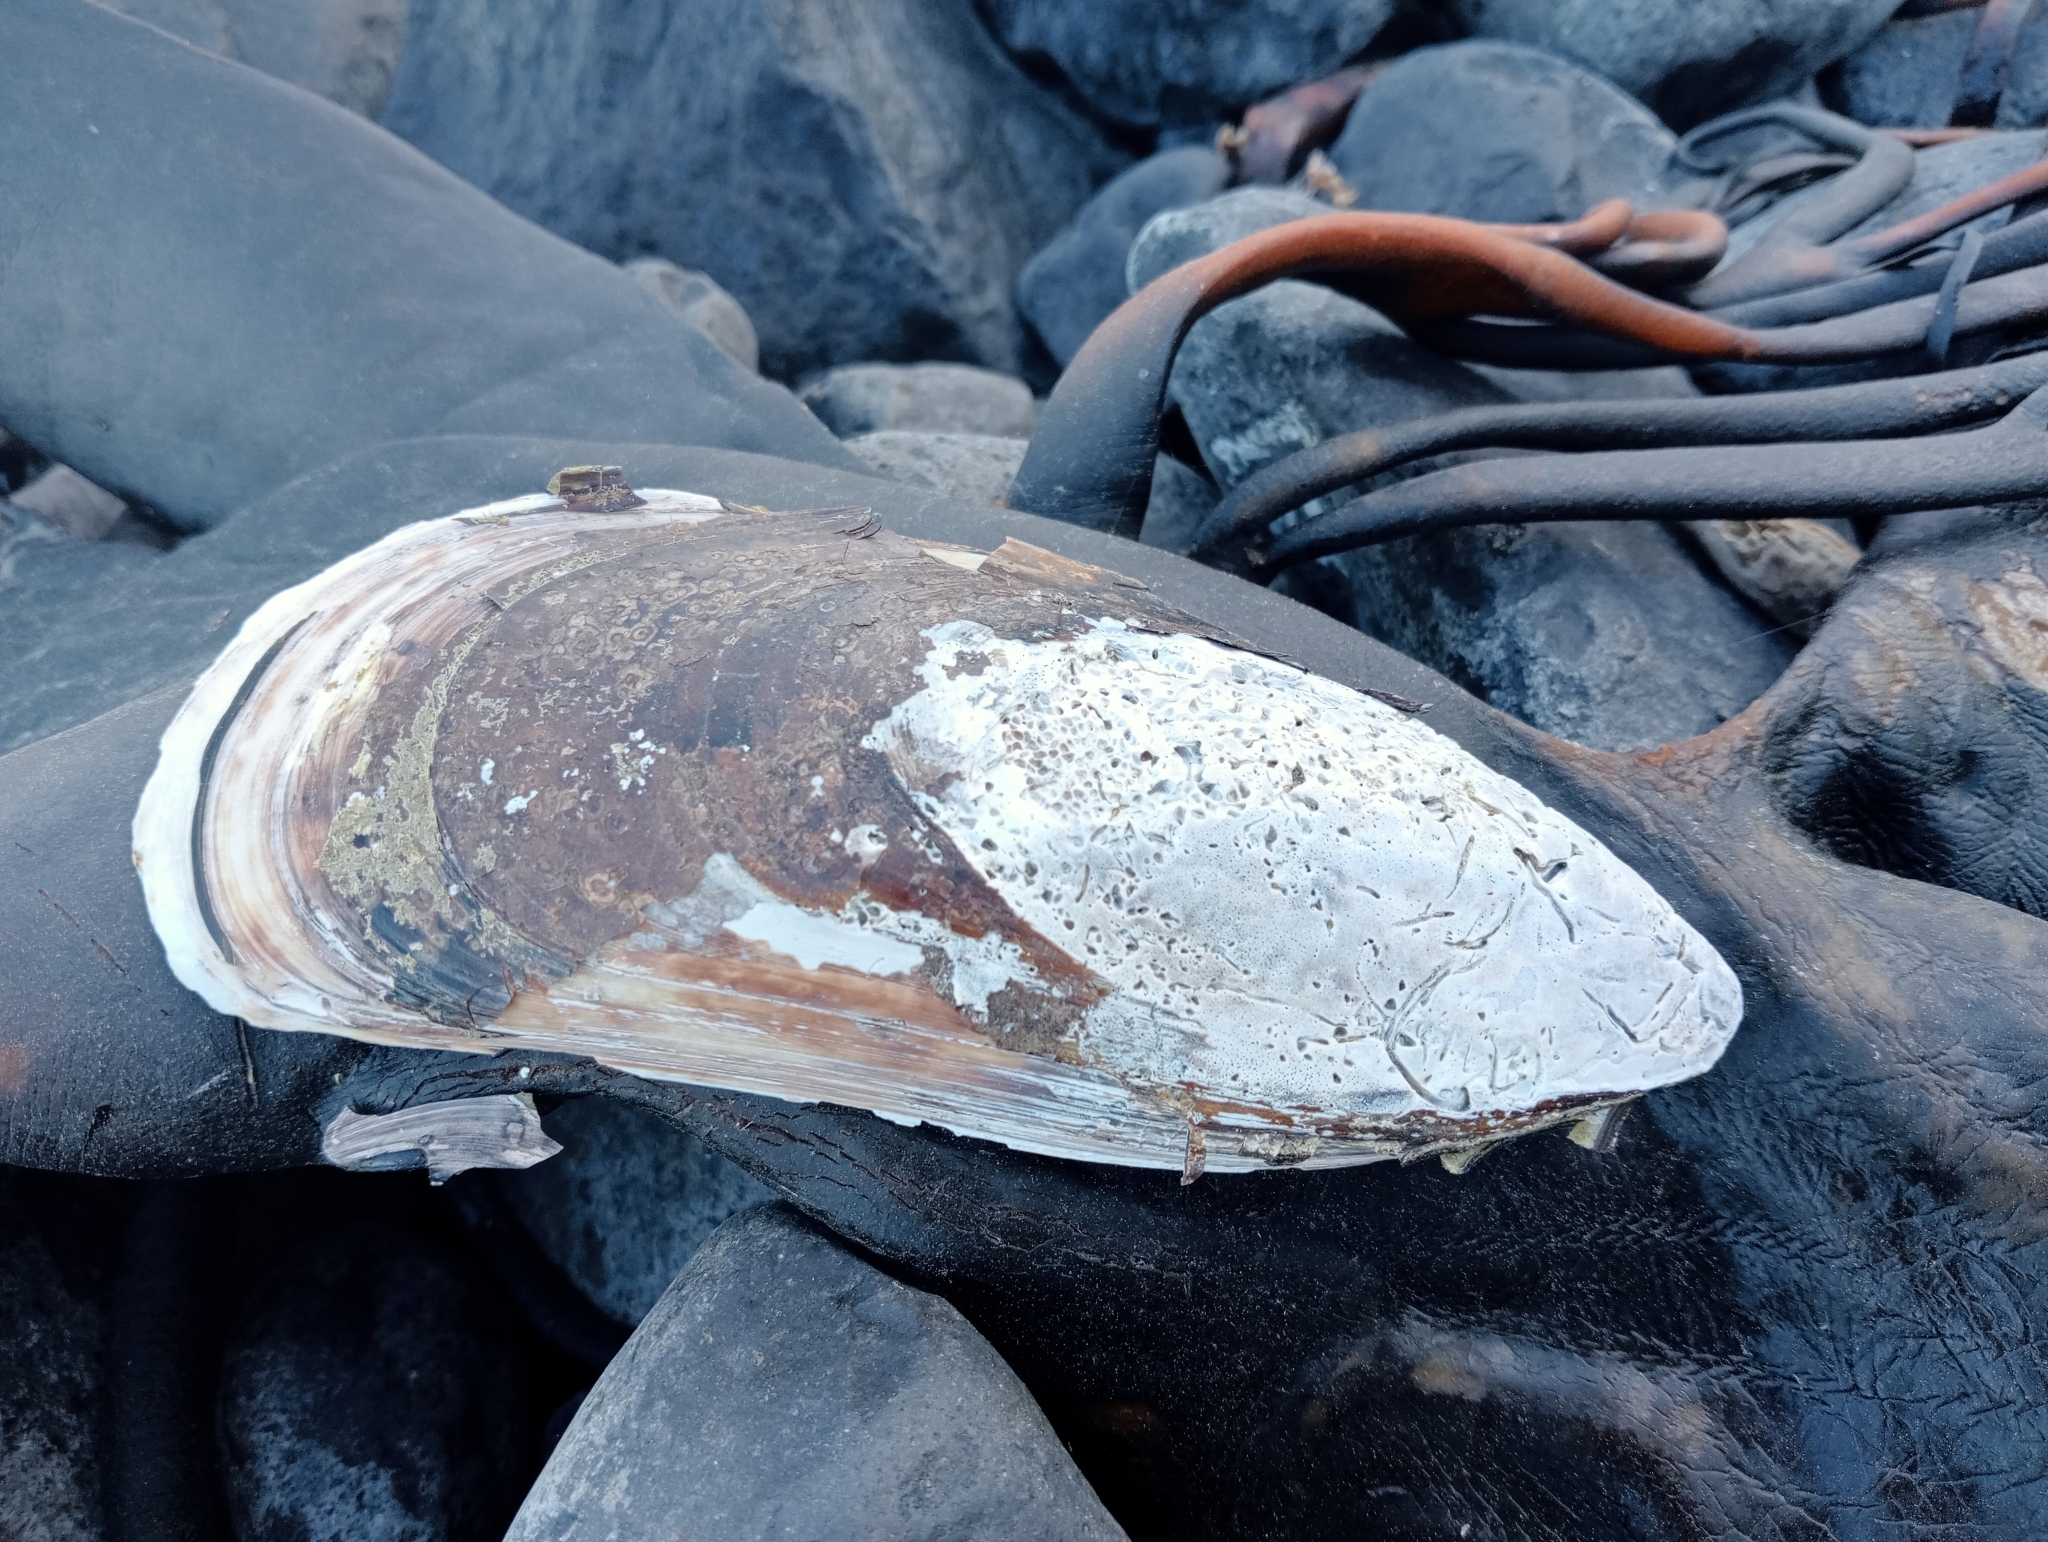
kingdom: Animalia
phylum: Mollusca
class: Bivalvia
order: Mytilida
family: Mytilidae
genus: Perna
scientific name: Perna canaliculus
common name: New zealand greenshelltm
